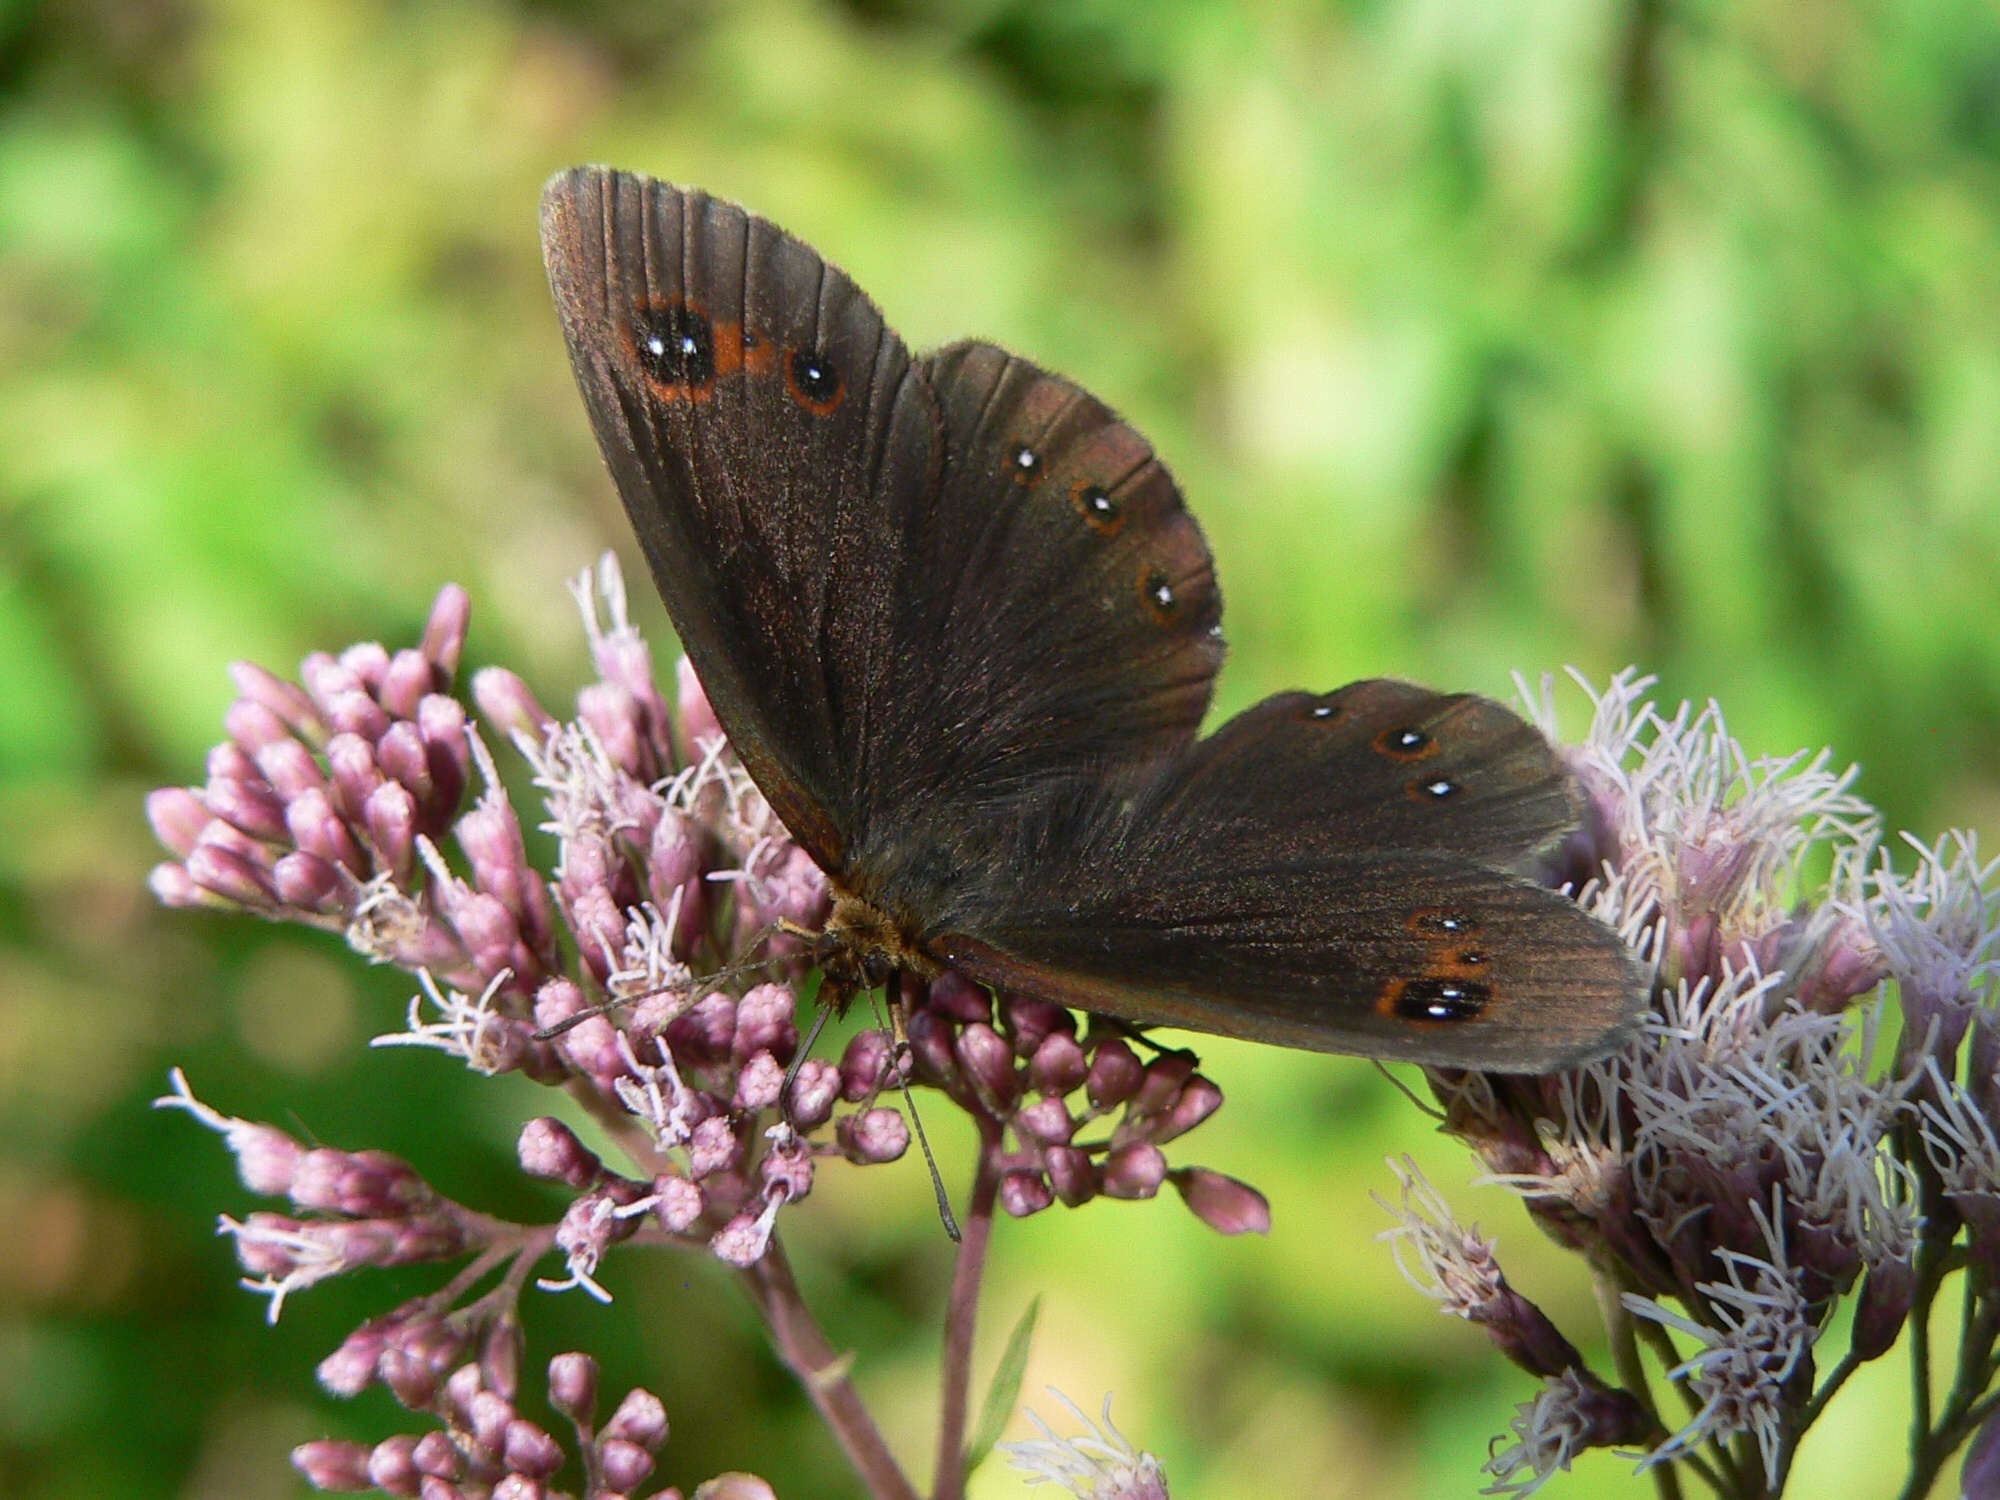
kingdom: Animalia
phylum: Arthropoda
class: Insecta
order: Lepidoptera
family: Nymphalidae
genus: Erebia
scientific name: Erebia aethiops
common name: Scotch argus
